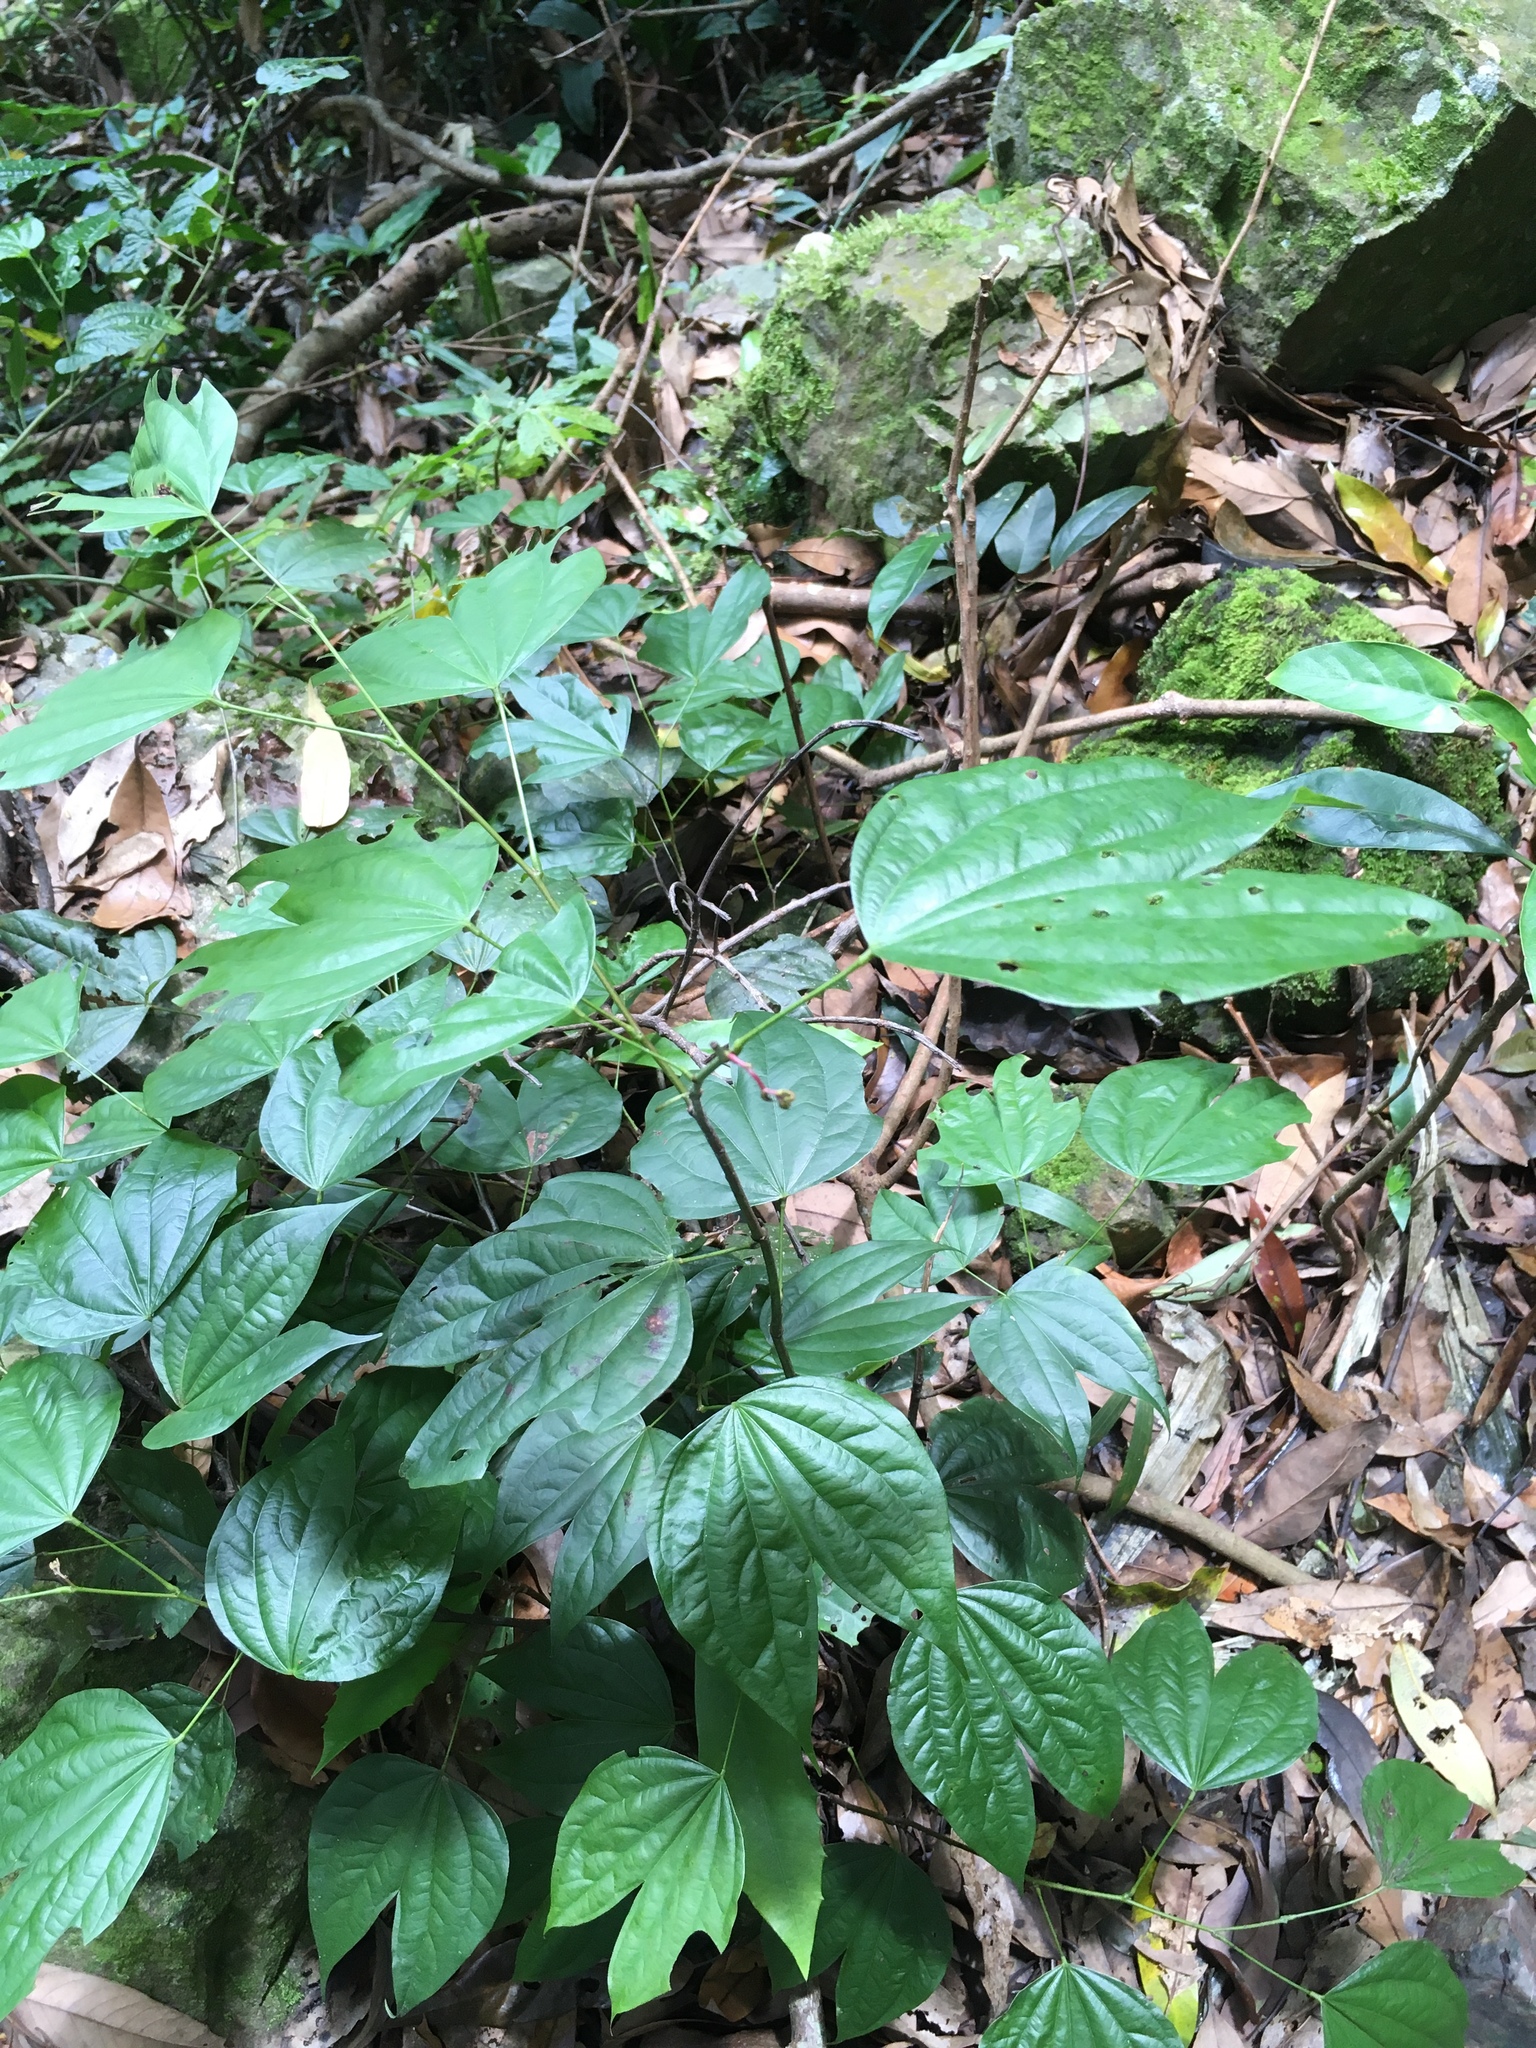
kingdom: Plantae
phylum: Tracheophyta
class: Magnoliopsida
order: Fabales
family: Fabaceae
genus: Phanera
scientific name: Phanera championii
